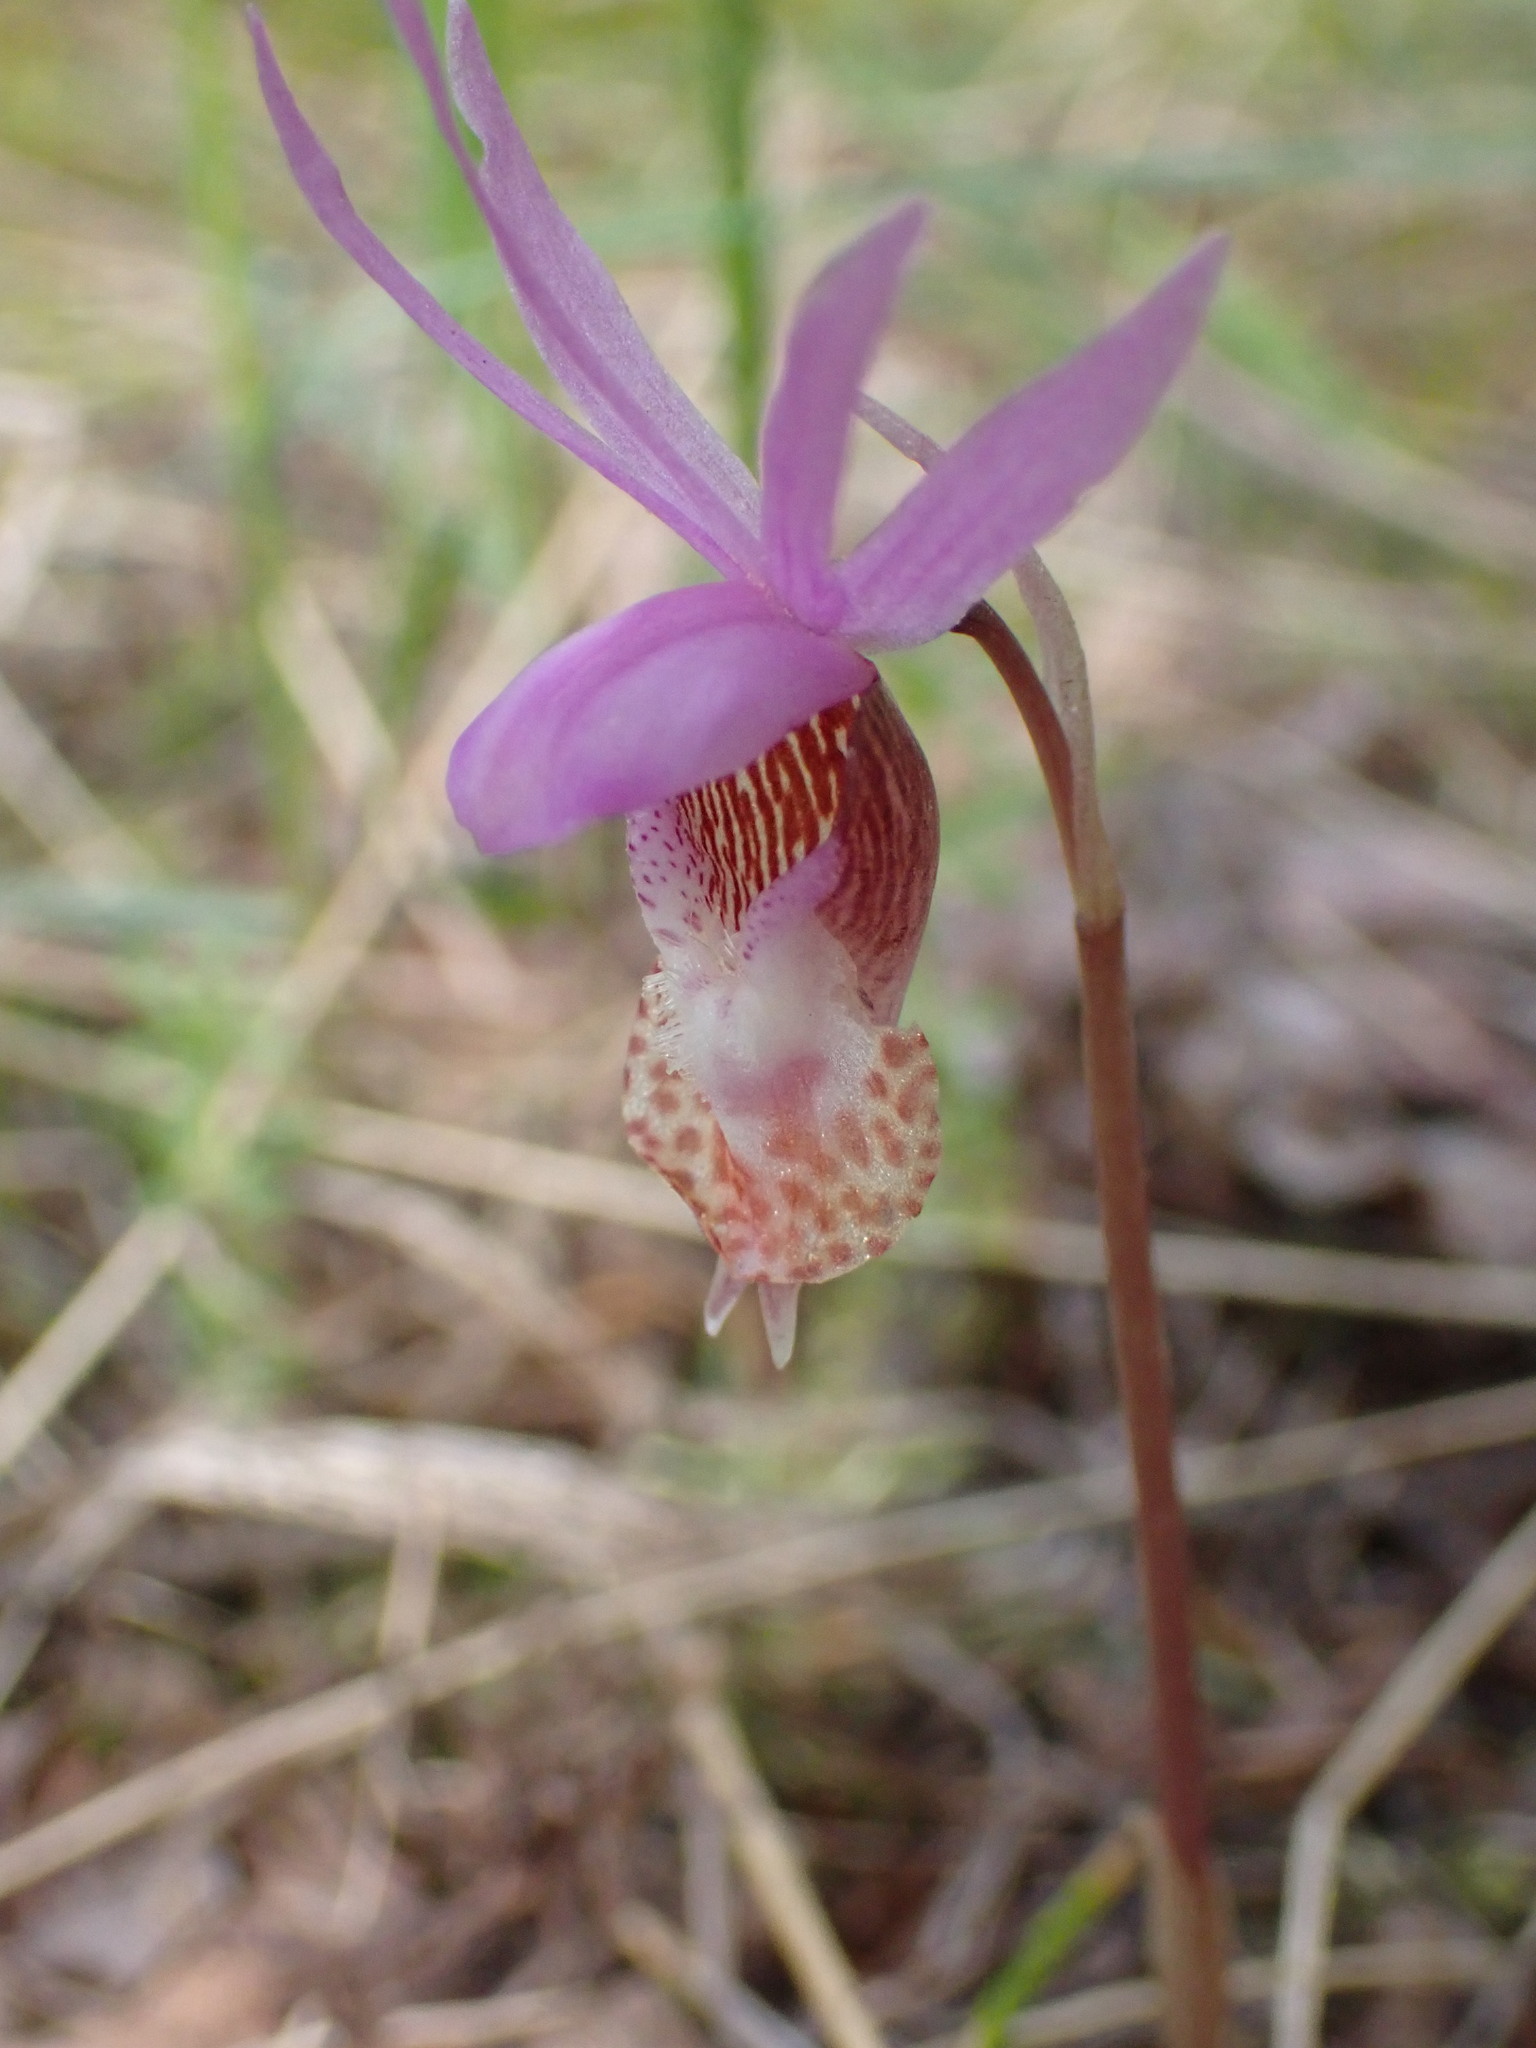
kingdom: Plantae
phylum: Tracheophyta
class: Liliopsida
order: Asparagales
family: Orchidaceae
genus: Calypso
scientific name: Calypso bulbosa
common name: Calypso
